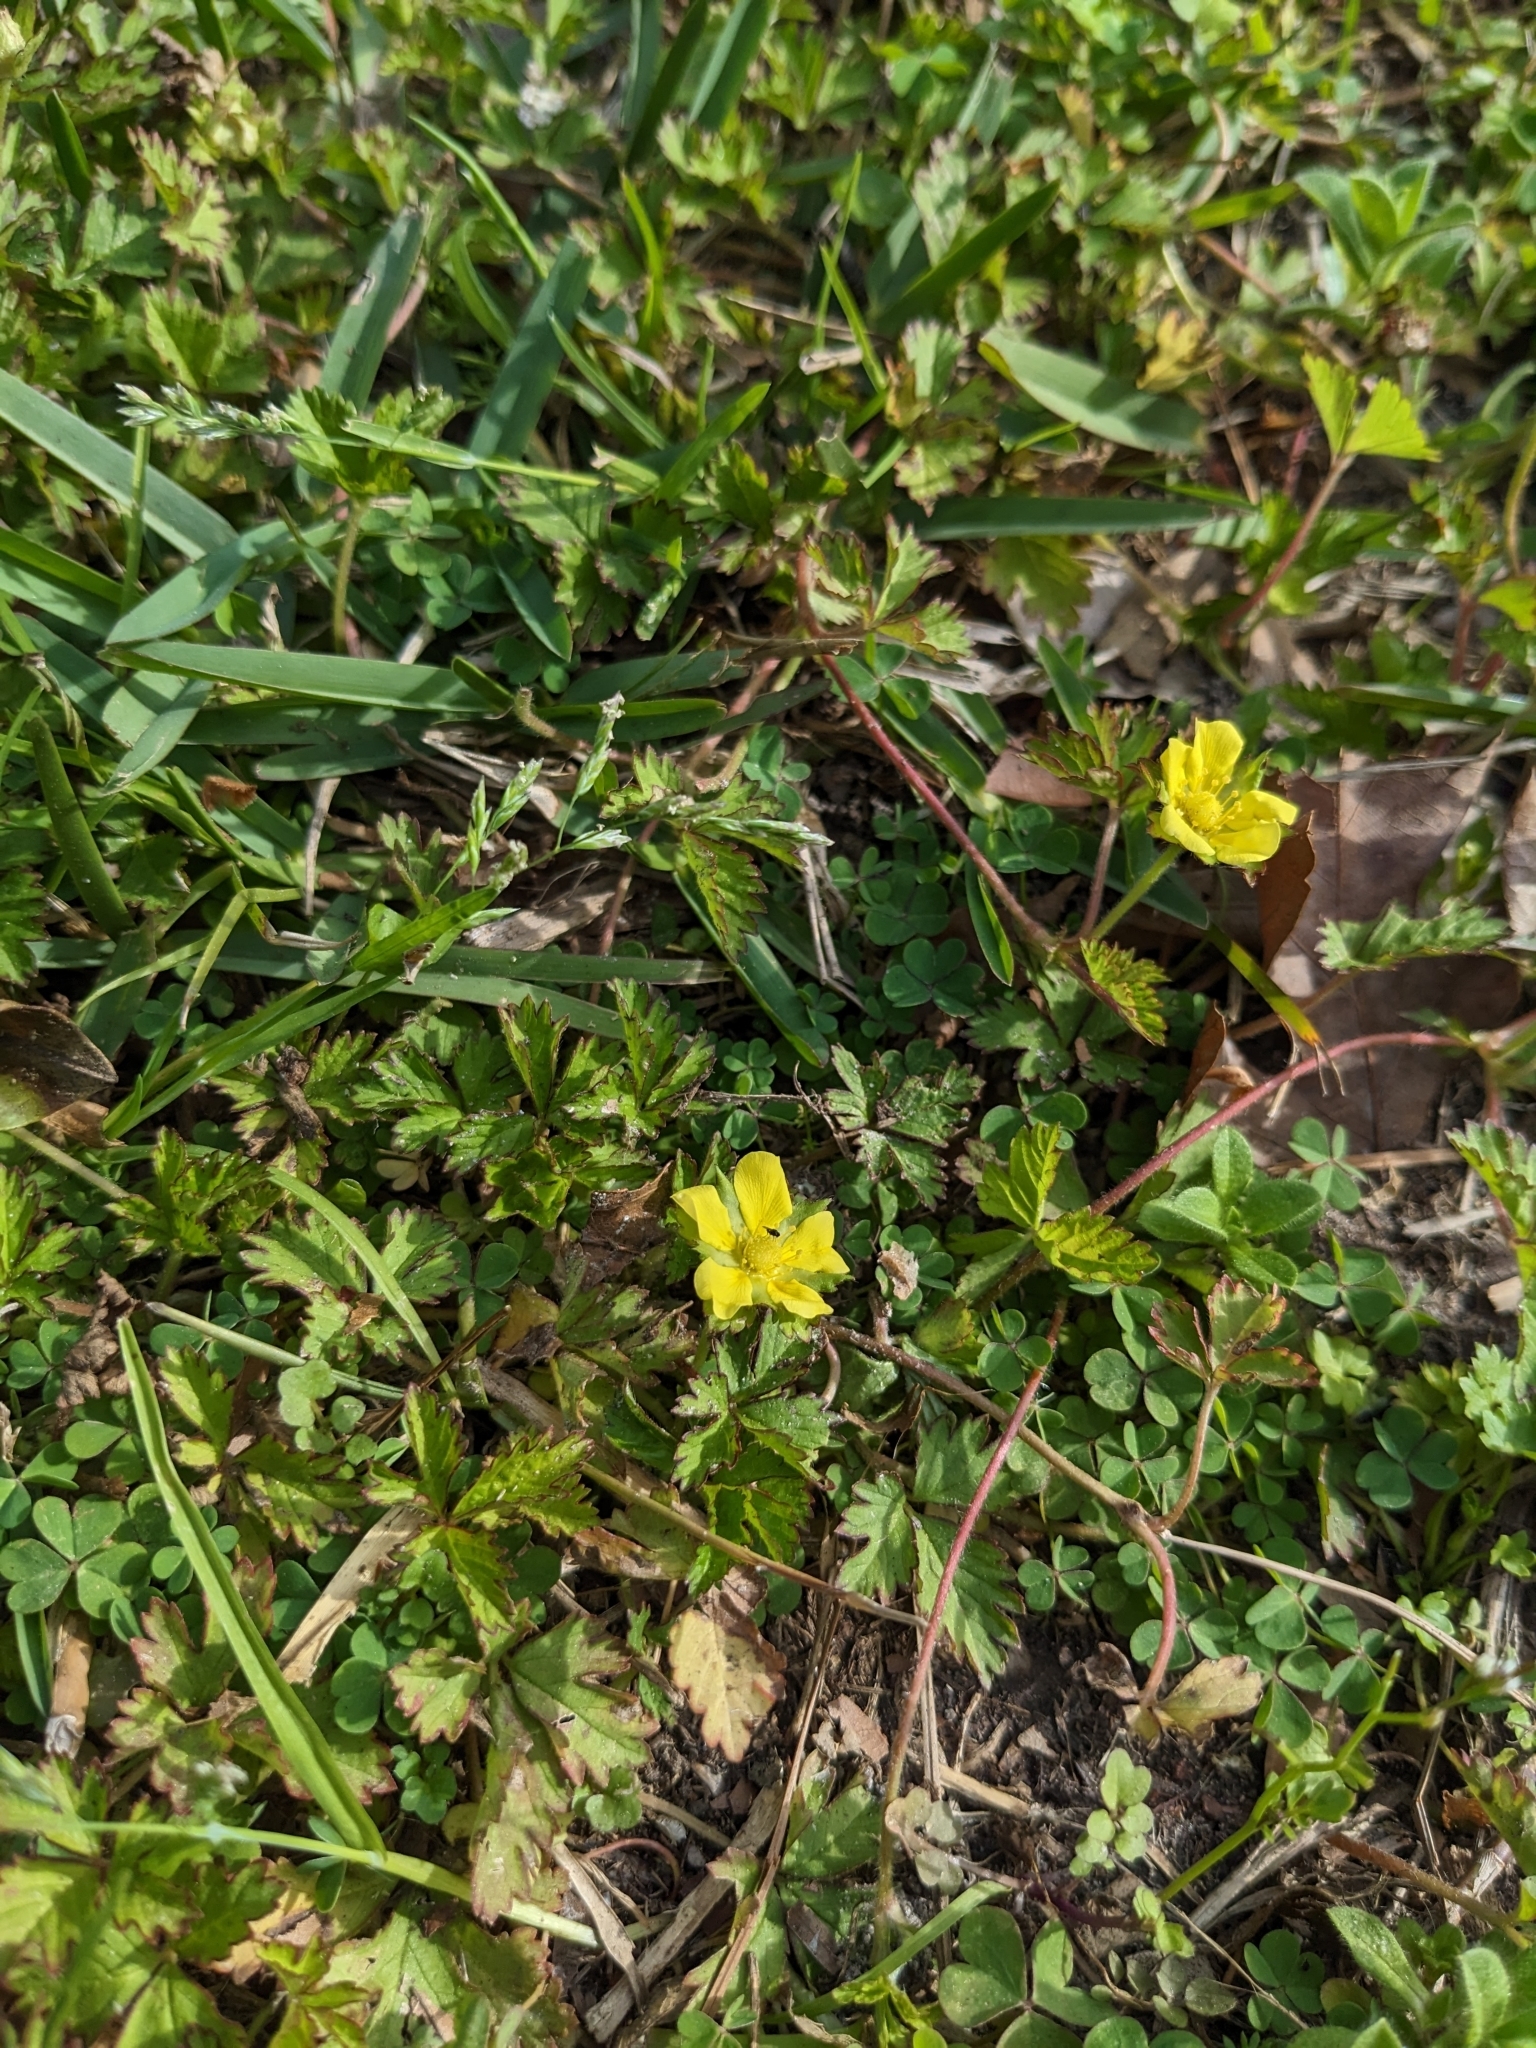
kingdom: Plantae
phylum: Tracheophyta
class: Magnoliopsida
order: Rosales
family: Rosaceae
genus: Potentilla
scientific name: Potentilla indica
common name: Yellow-flowered strawberry
